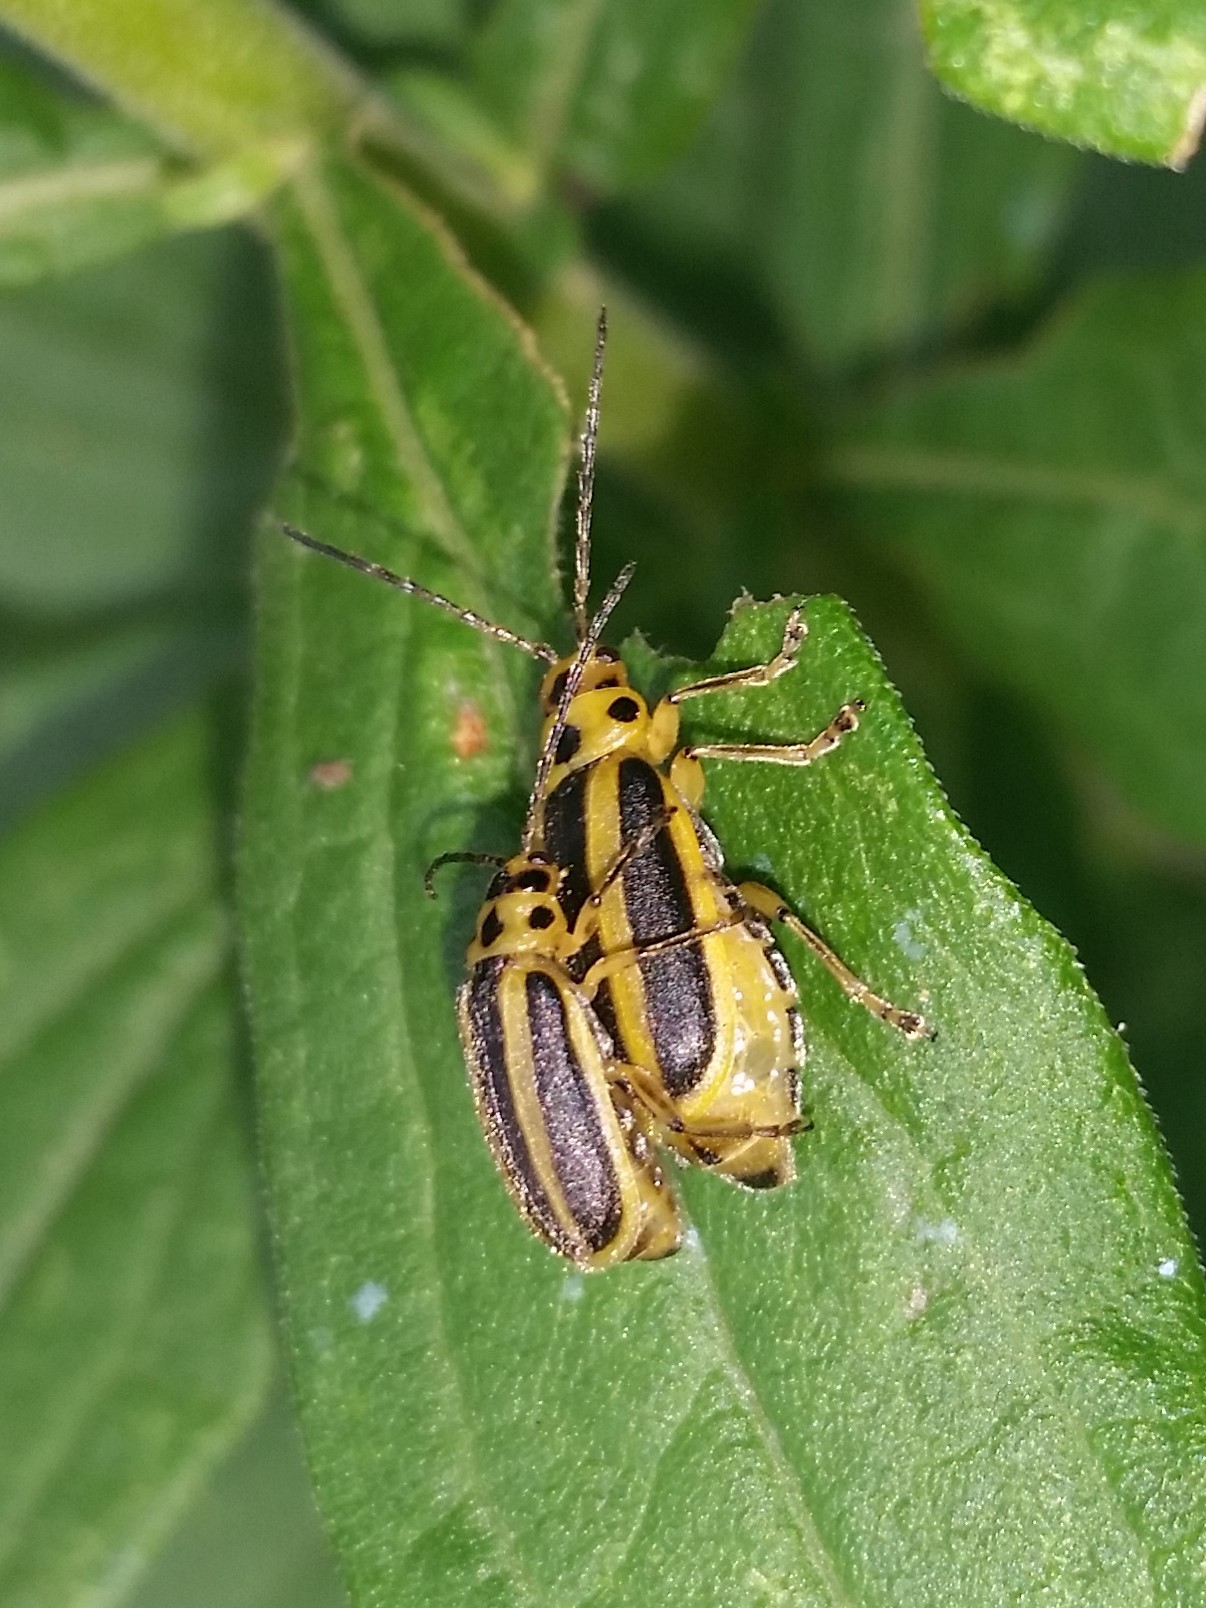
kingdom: Animalia
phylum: Arthropoda
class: Insecta
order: Coleoptera
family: Chrysomelidae
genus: Trirhabda
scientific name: Trirhabda canadensis
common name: Goldenrod leaf beetle
